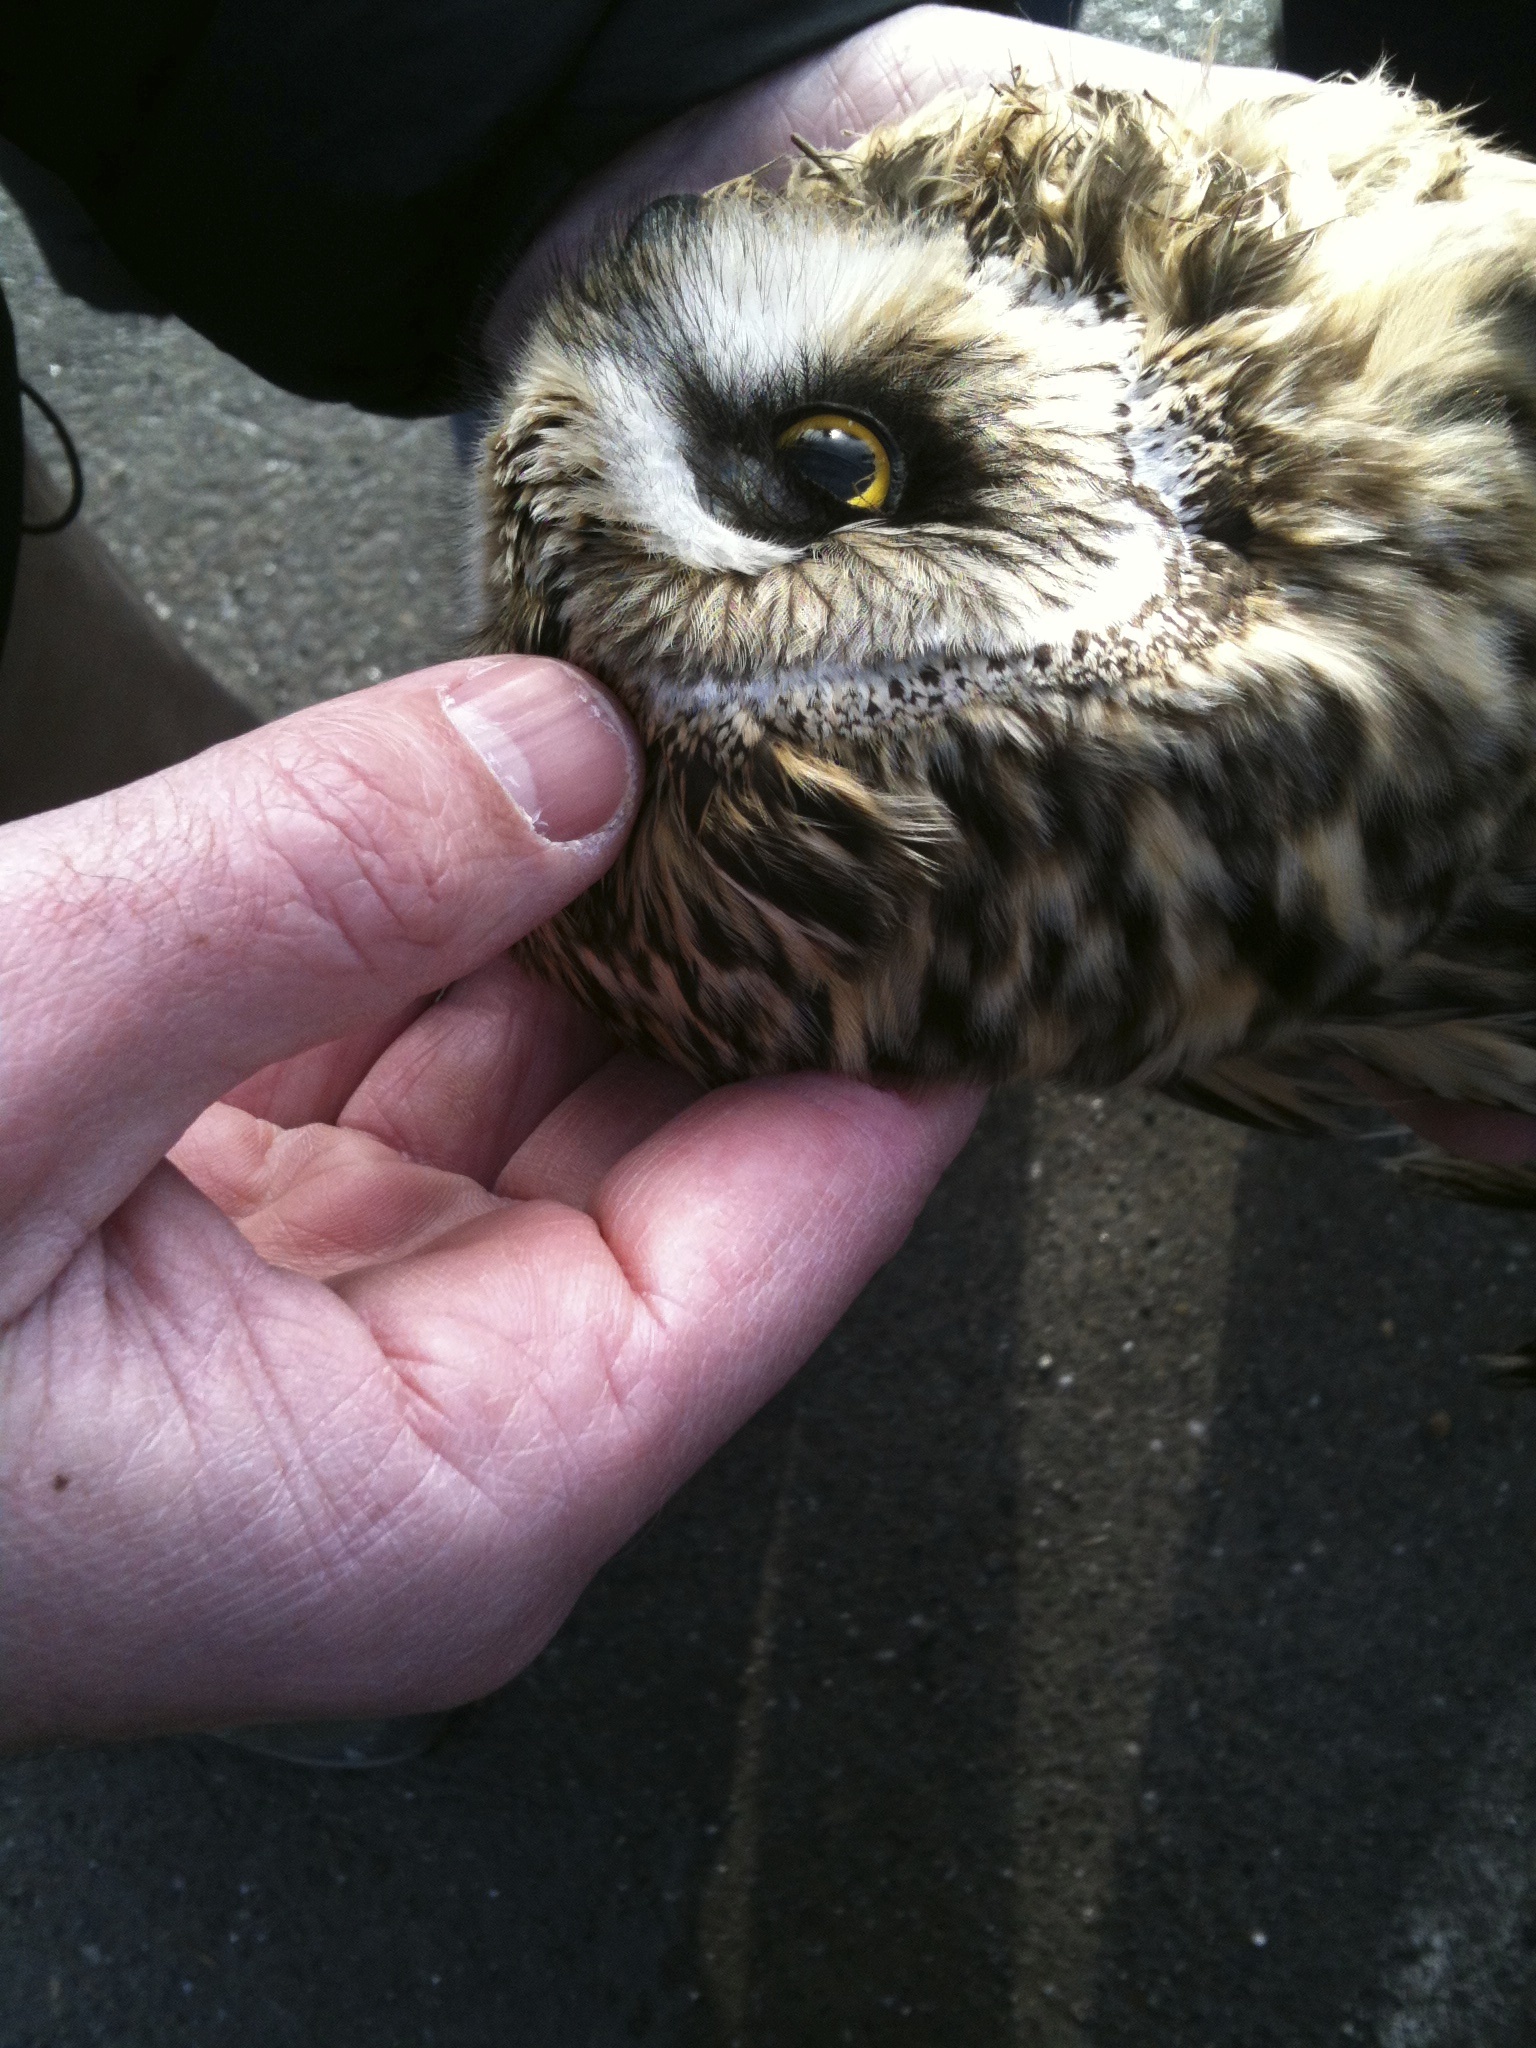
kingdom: Animalia
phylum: Chordata
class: Aves
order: Strigiformes
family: Strigidae
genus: Asio
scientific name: Asio flammeus
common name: Short-eared owl
